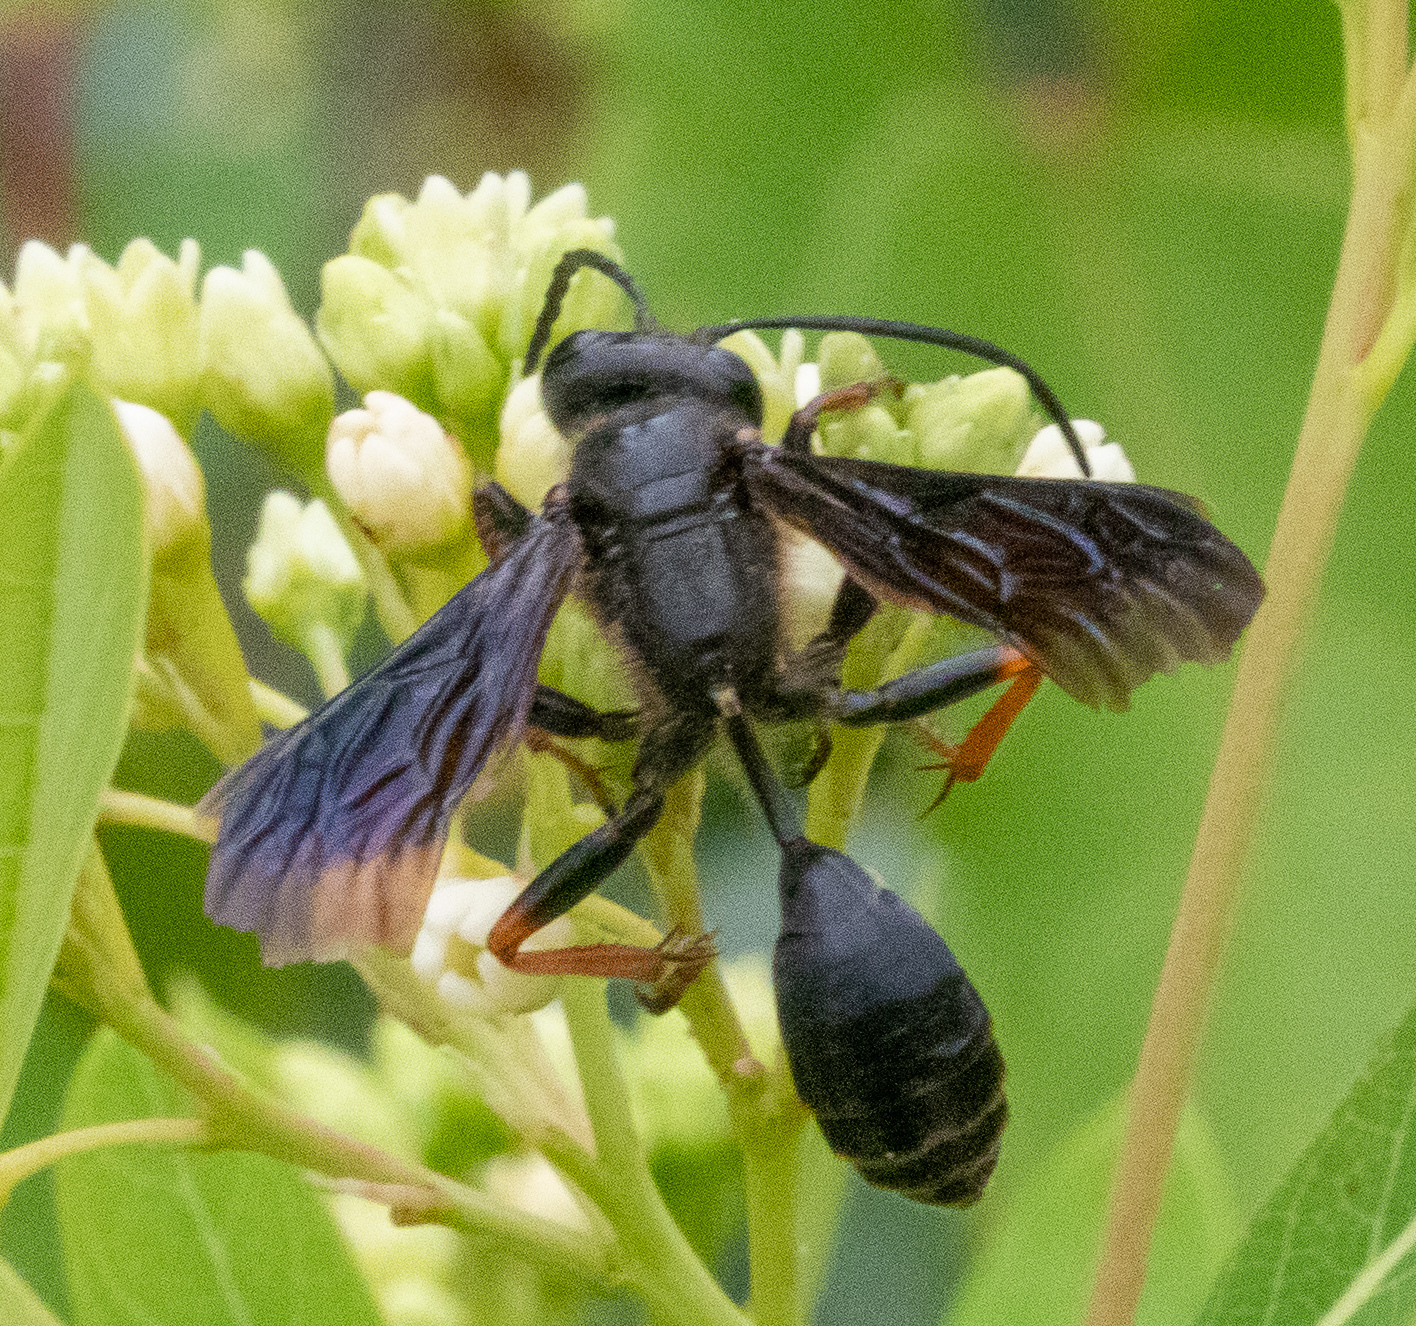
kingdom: Animalia
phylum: Arthropoda
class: Insecta
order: Hymenoptera
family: Sphecidae
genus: Isodontia
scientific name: Isodontia auripes
